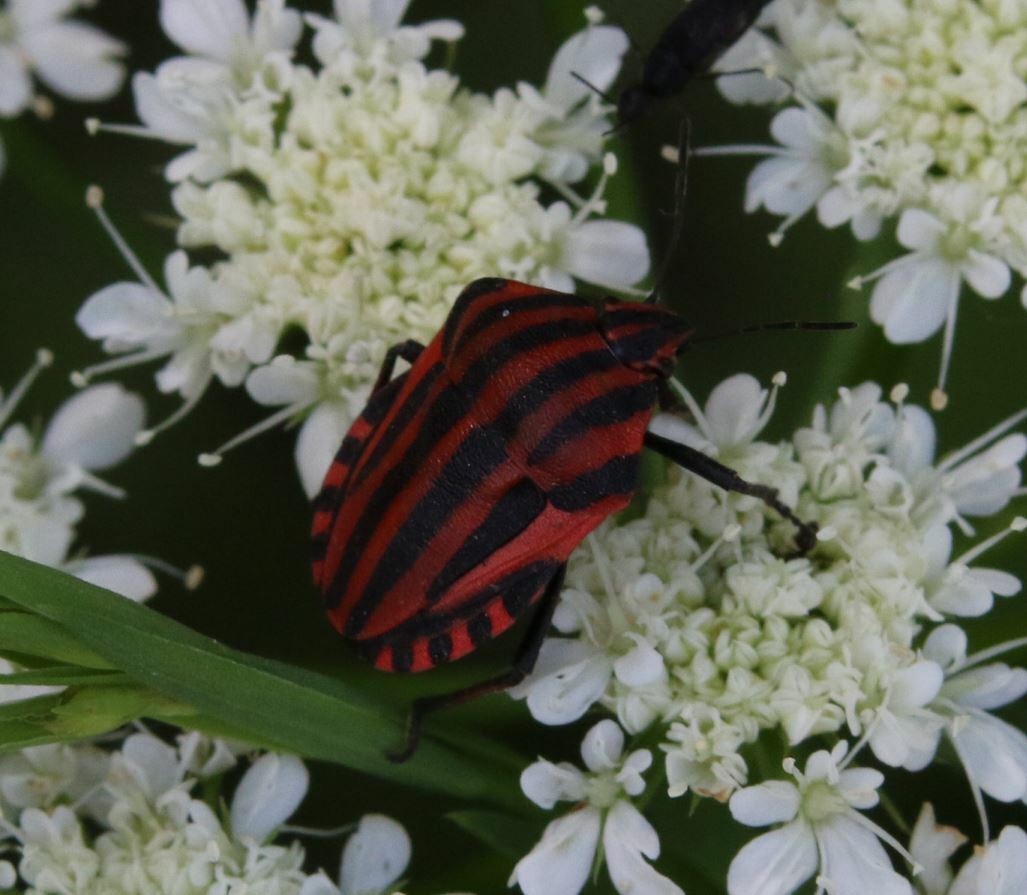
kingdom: Animalia
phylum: Arthropoda
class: Insecta
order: Hemiptera
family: Pentatomidae
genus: Graphosoma
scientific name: Graphosoma italicum
